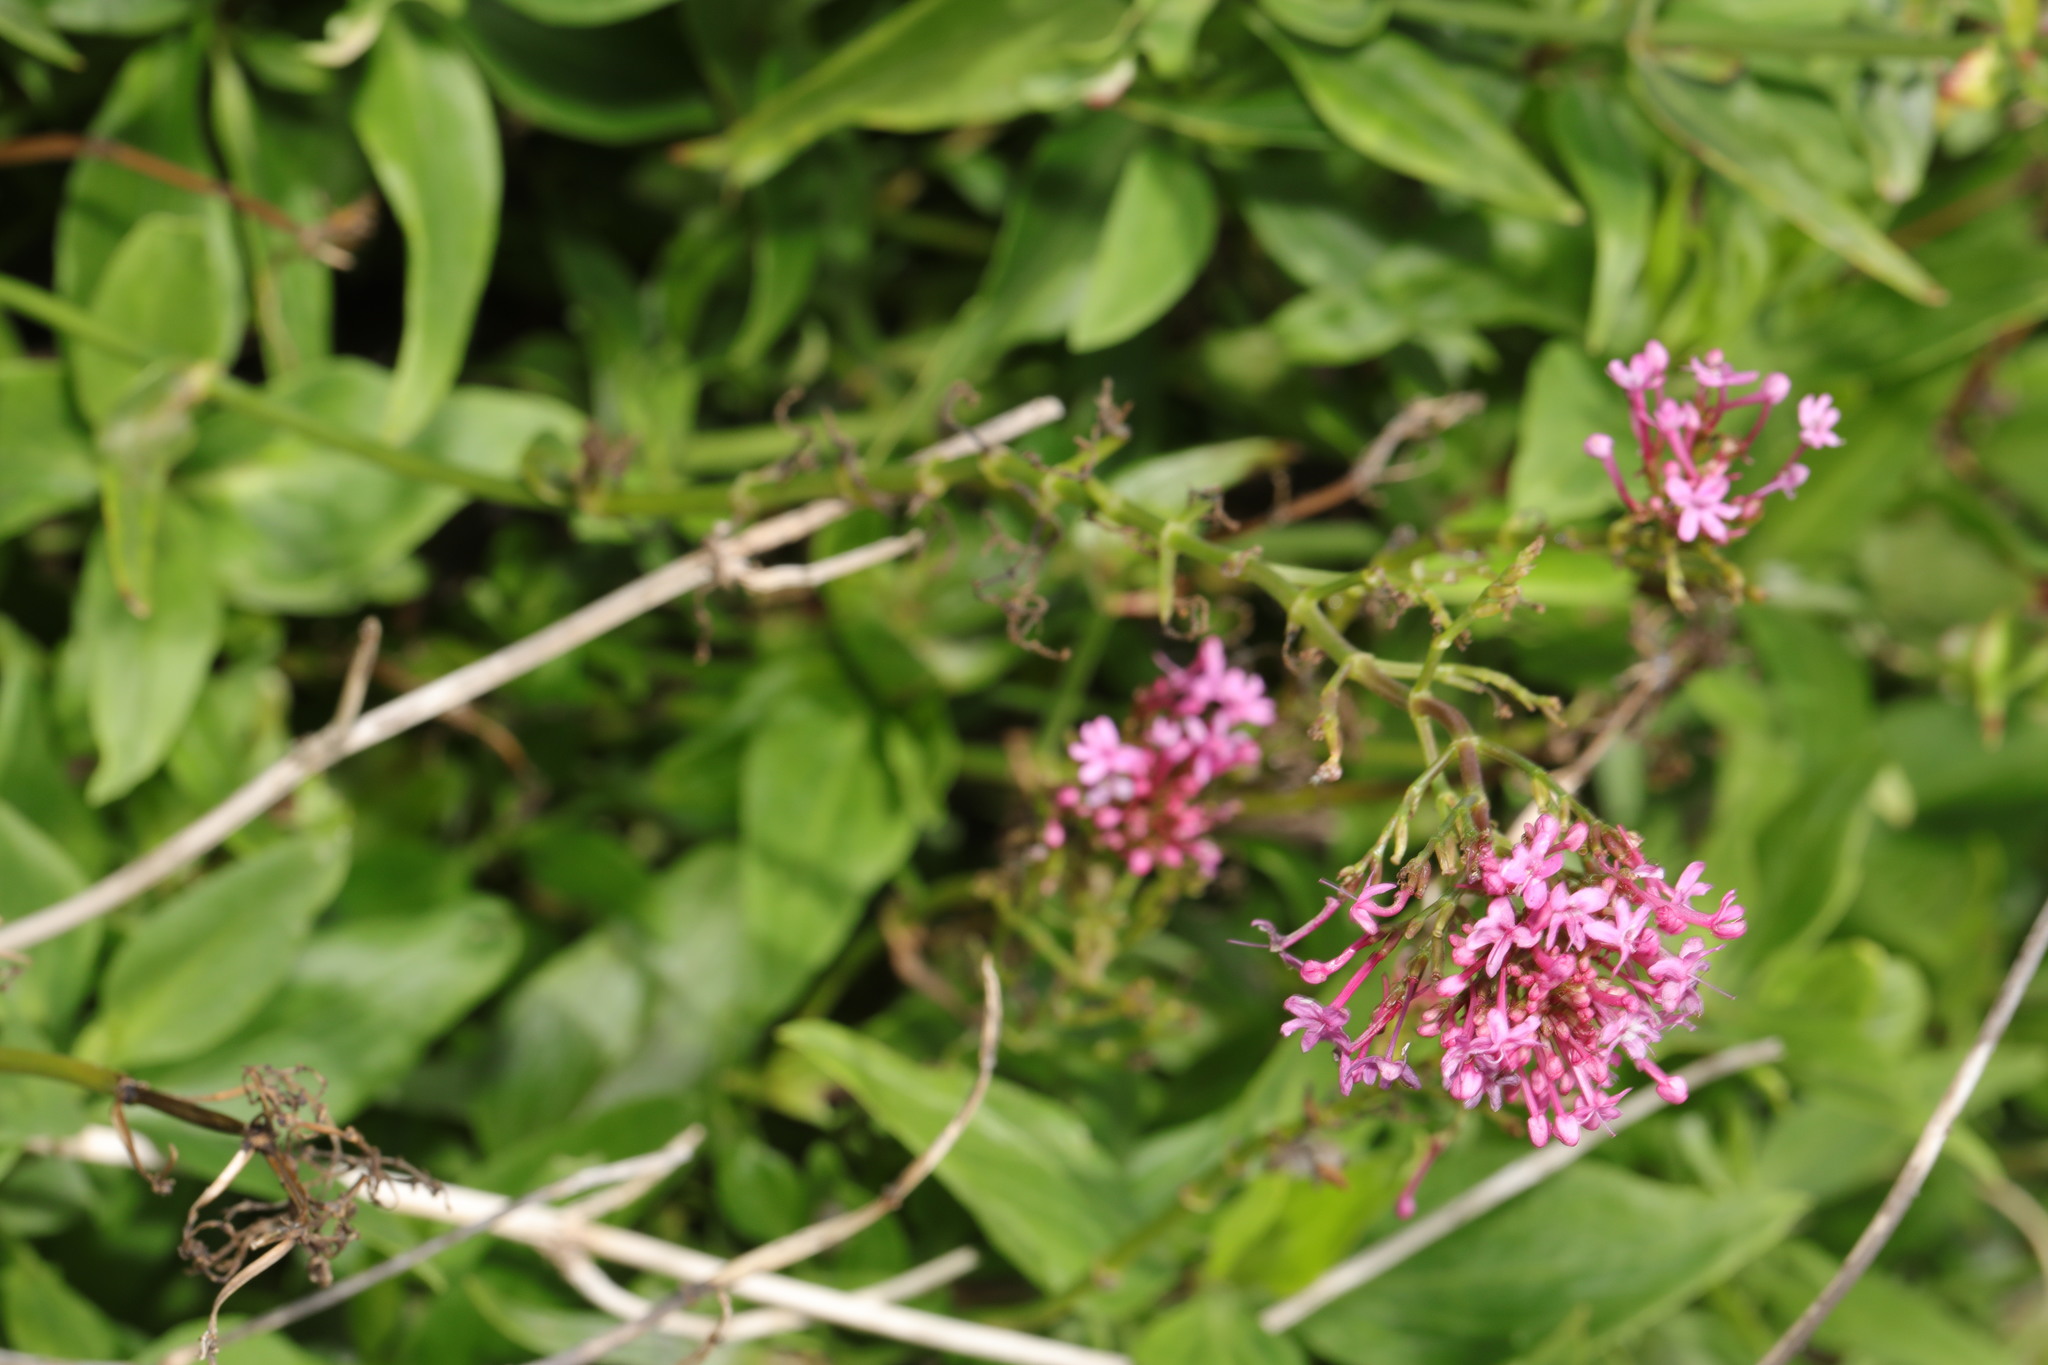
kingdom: Plantae
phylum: Tracheophyta
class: Magnoliopsida
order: Dipsacales
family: Caprifoliaceae
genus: Centranthus
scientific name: Centranthus ruber
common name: Red valerian
